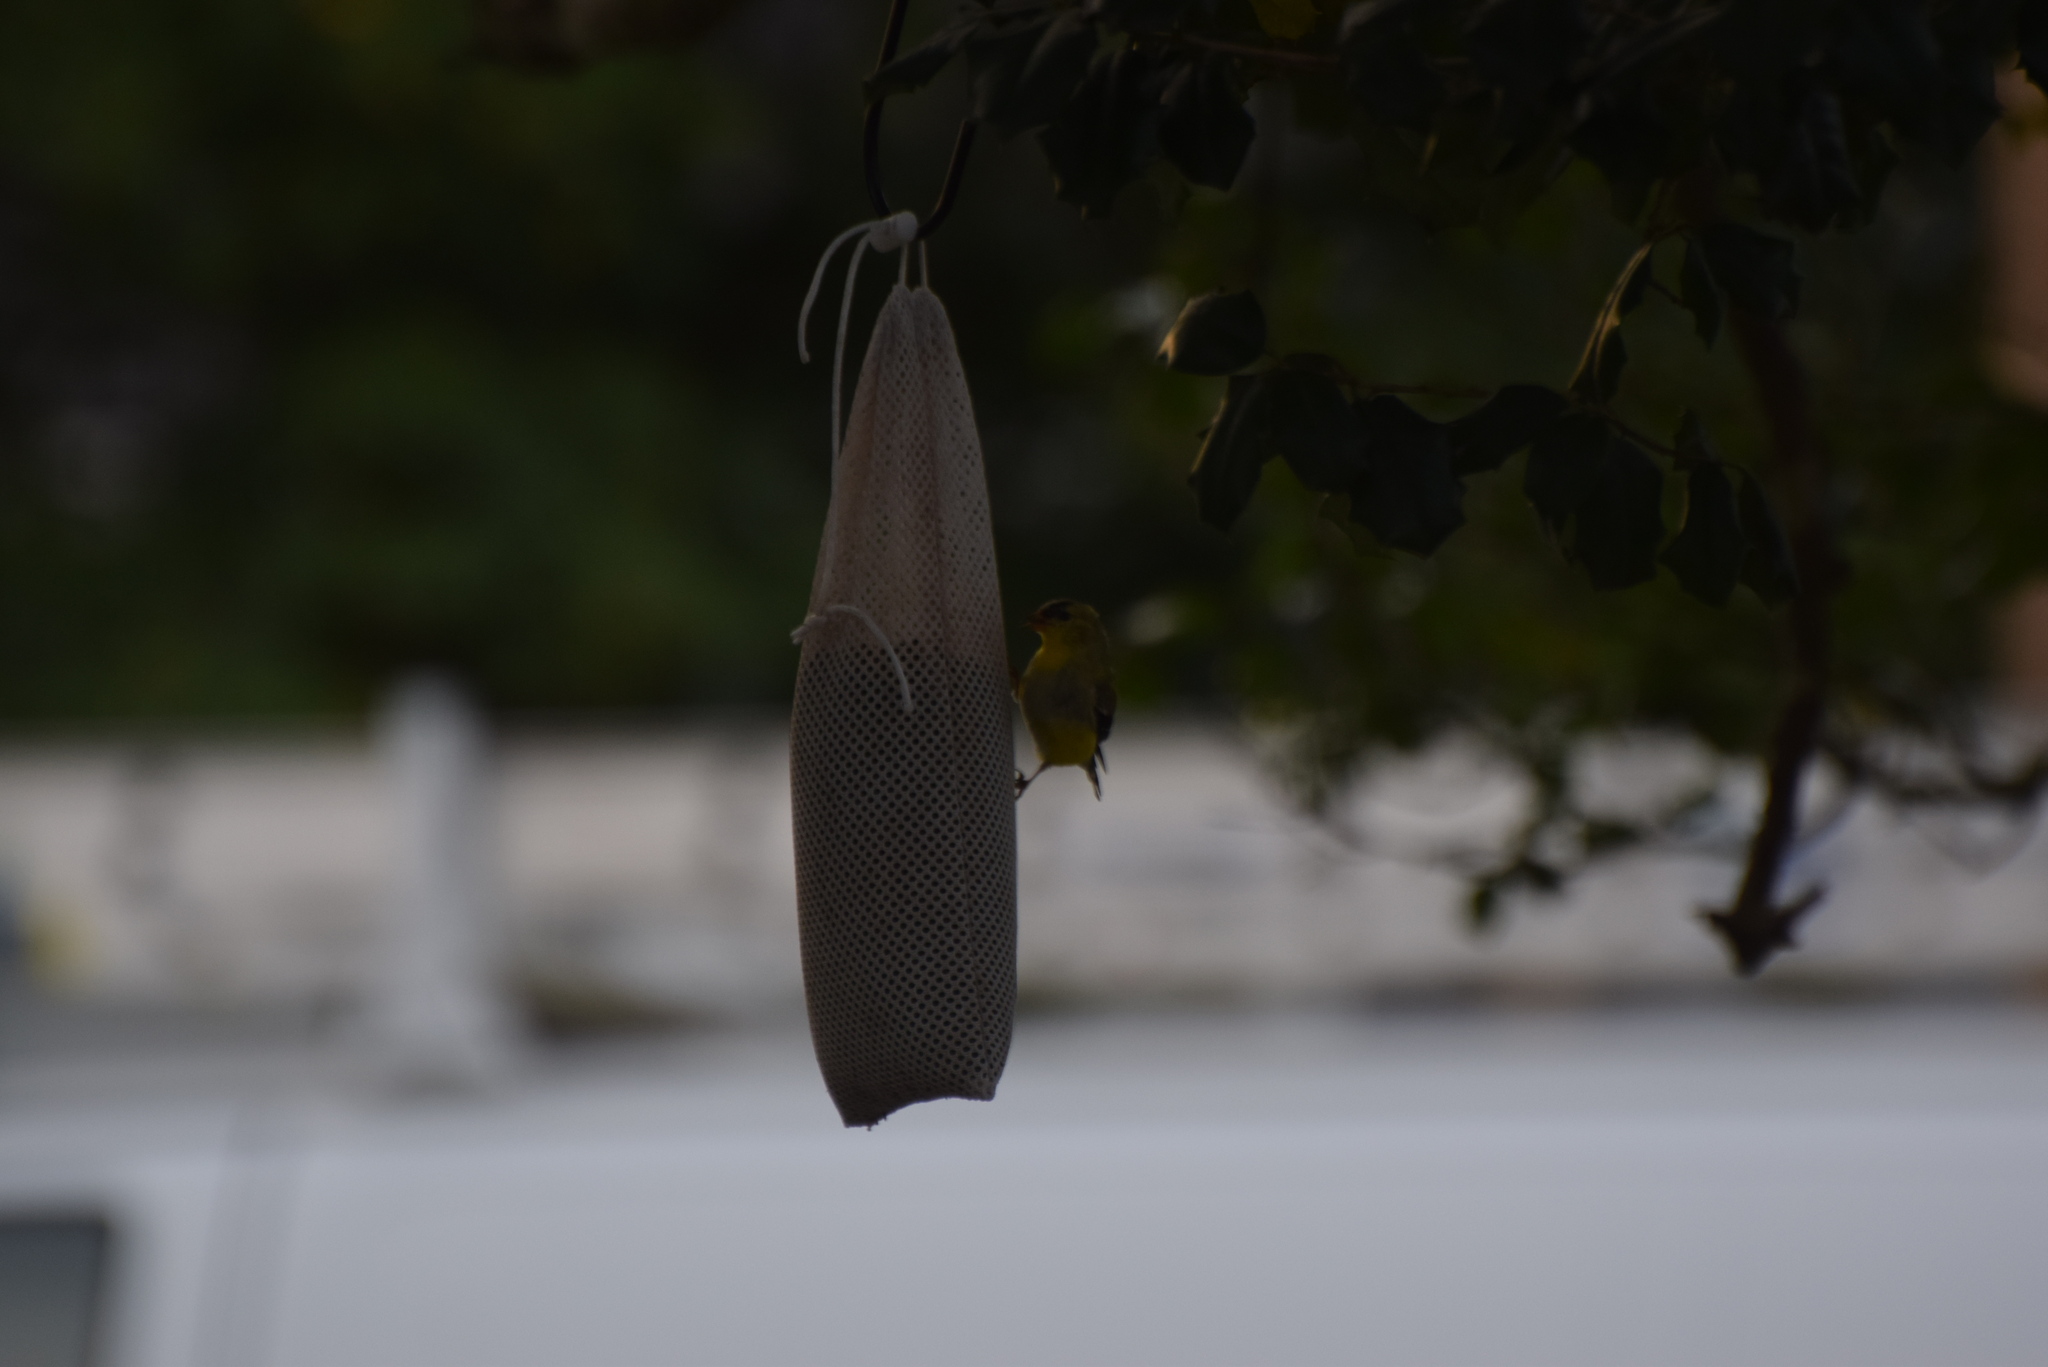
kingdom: Animalia
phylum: Chordata
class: Aves
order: Passeriformes
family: Fringillidae
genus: Spinus
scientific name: Spinus tristis
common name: American goldfinch
